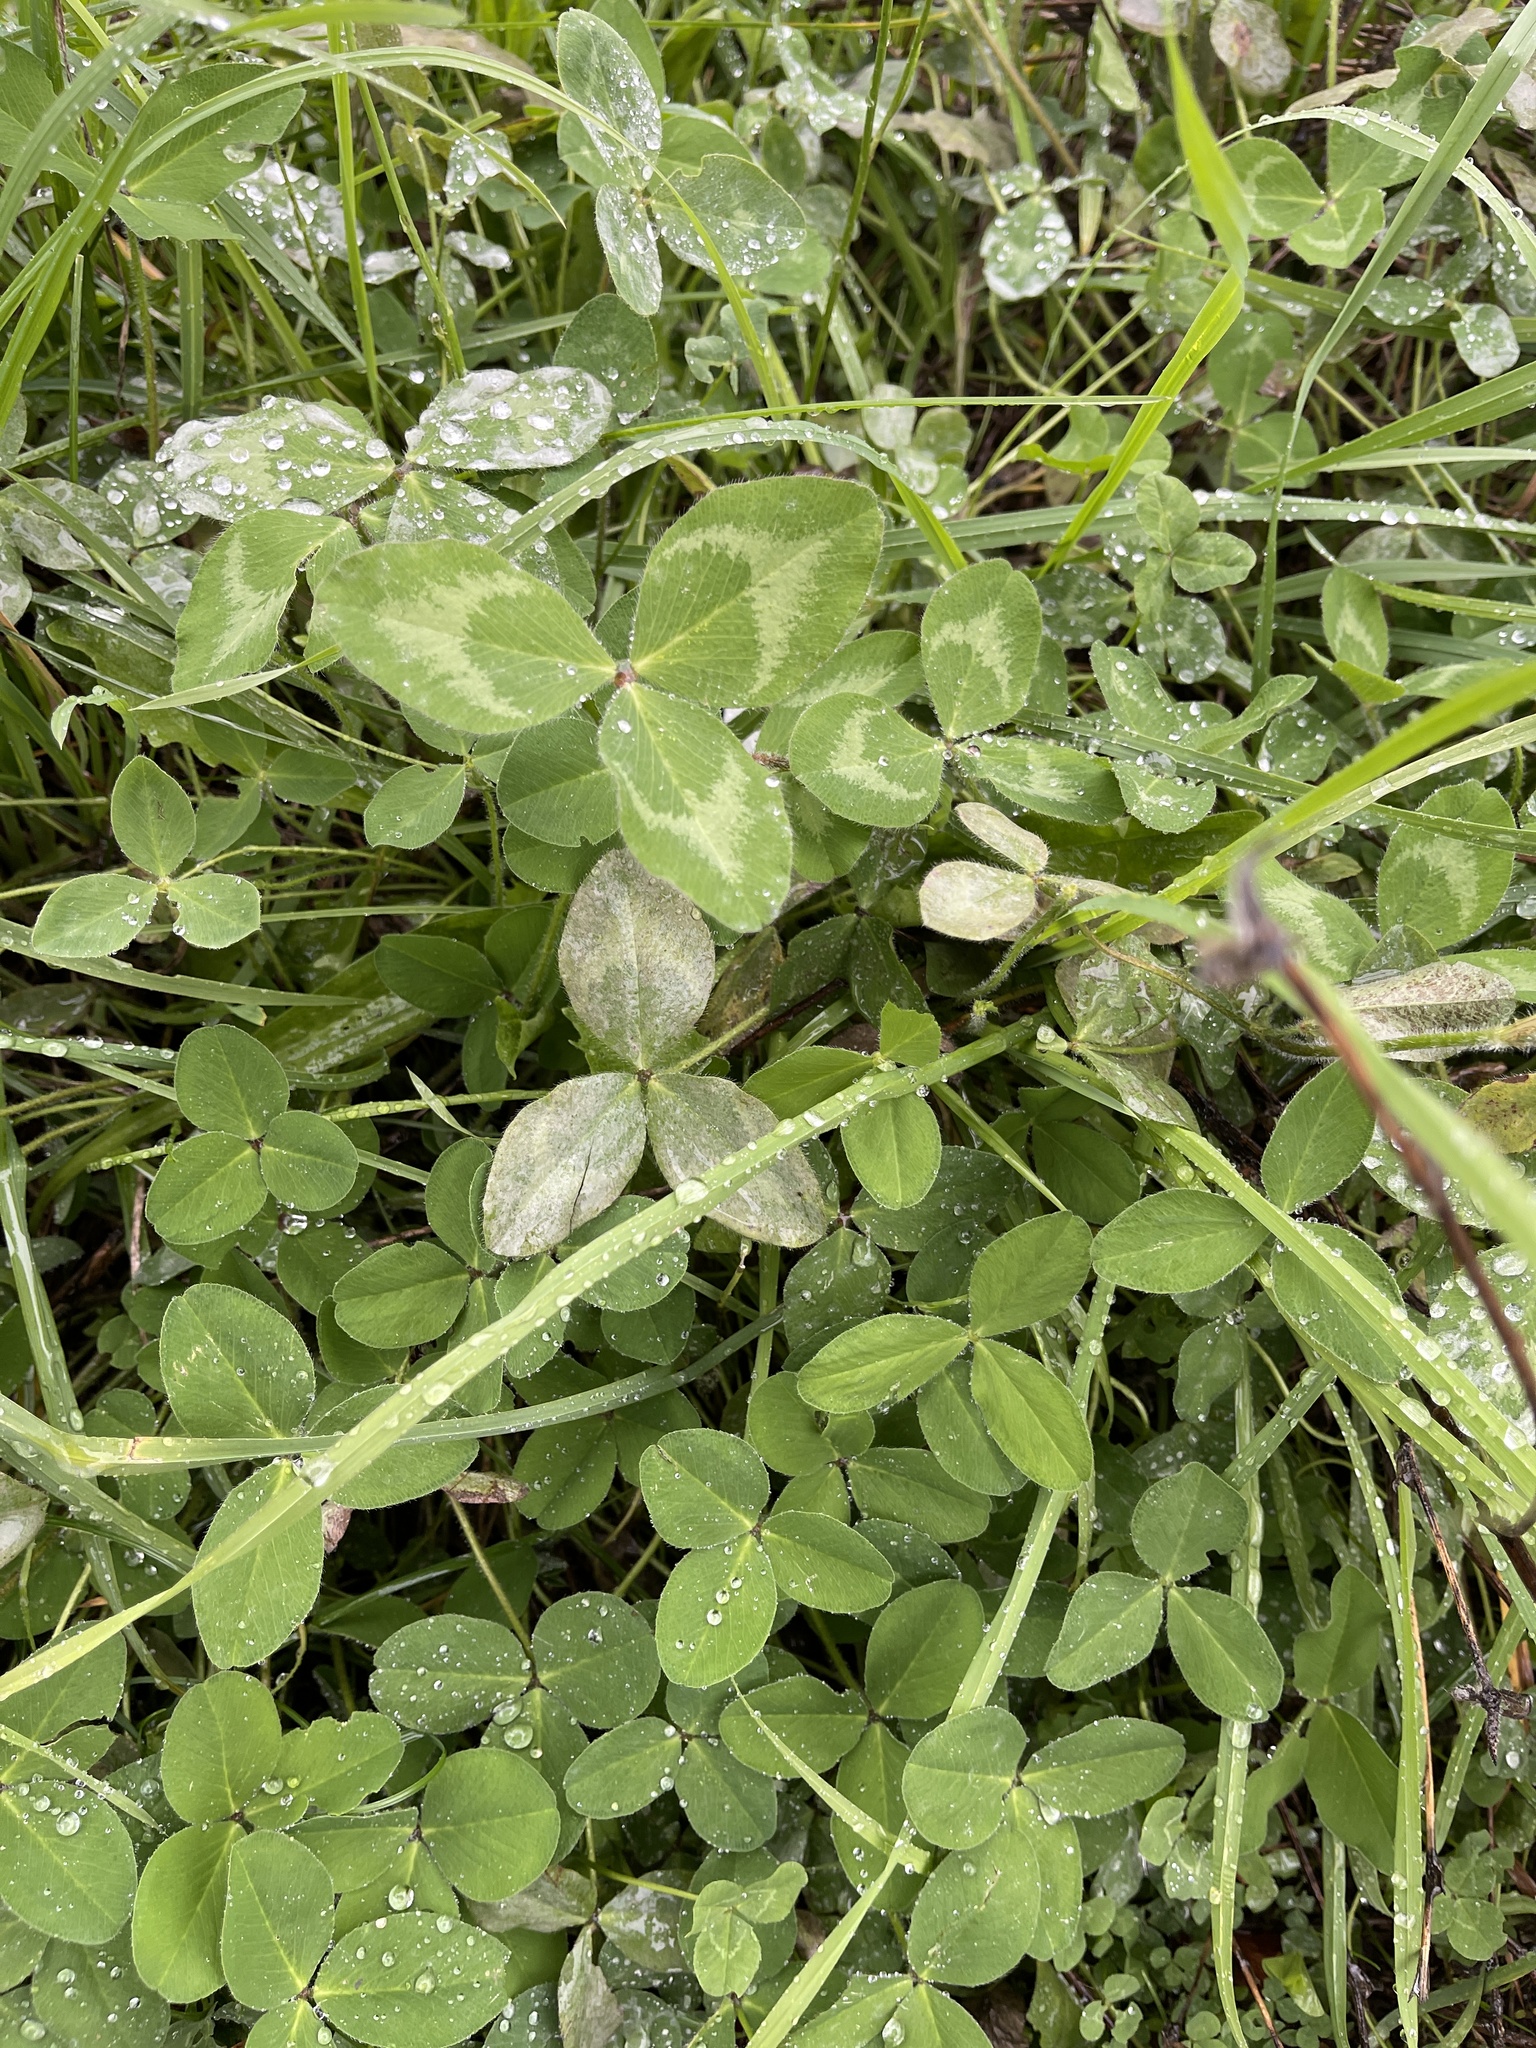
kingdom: Plantae
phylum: Tracheophyta
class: Magnoliopsida
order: Fabales
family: Fabaceae
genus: Trifolium
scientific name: Trifolium pratense
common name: Red clover
